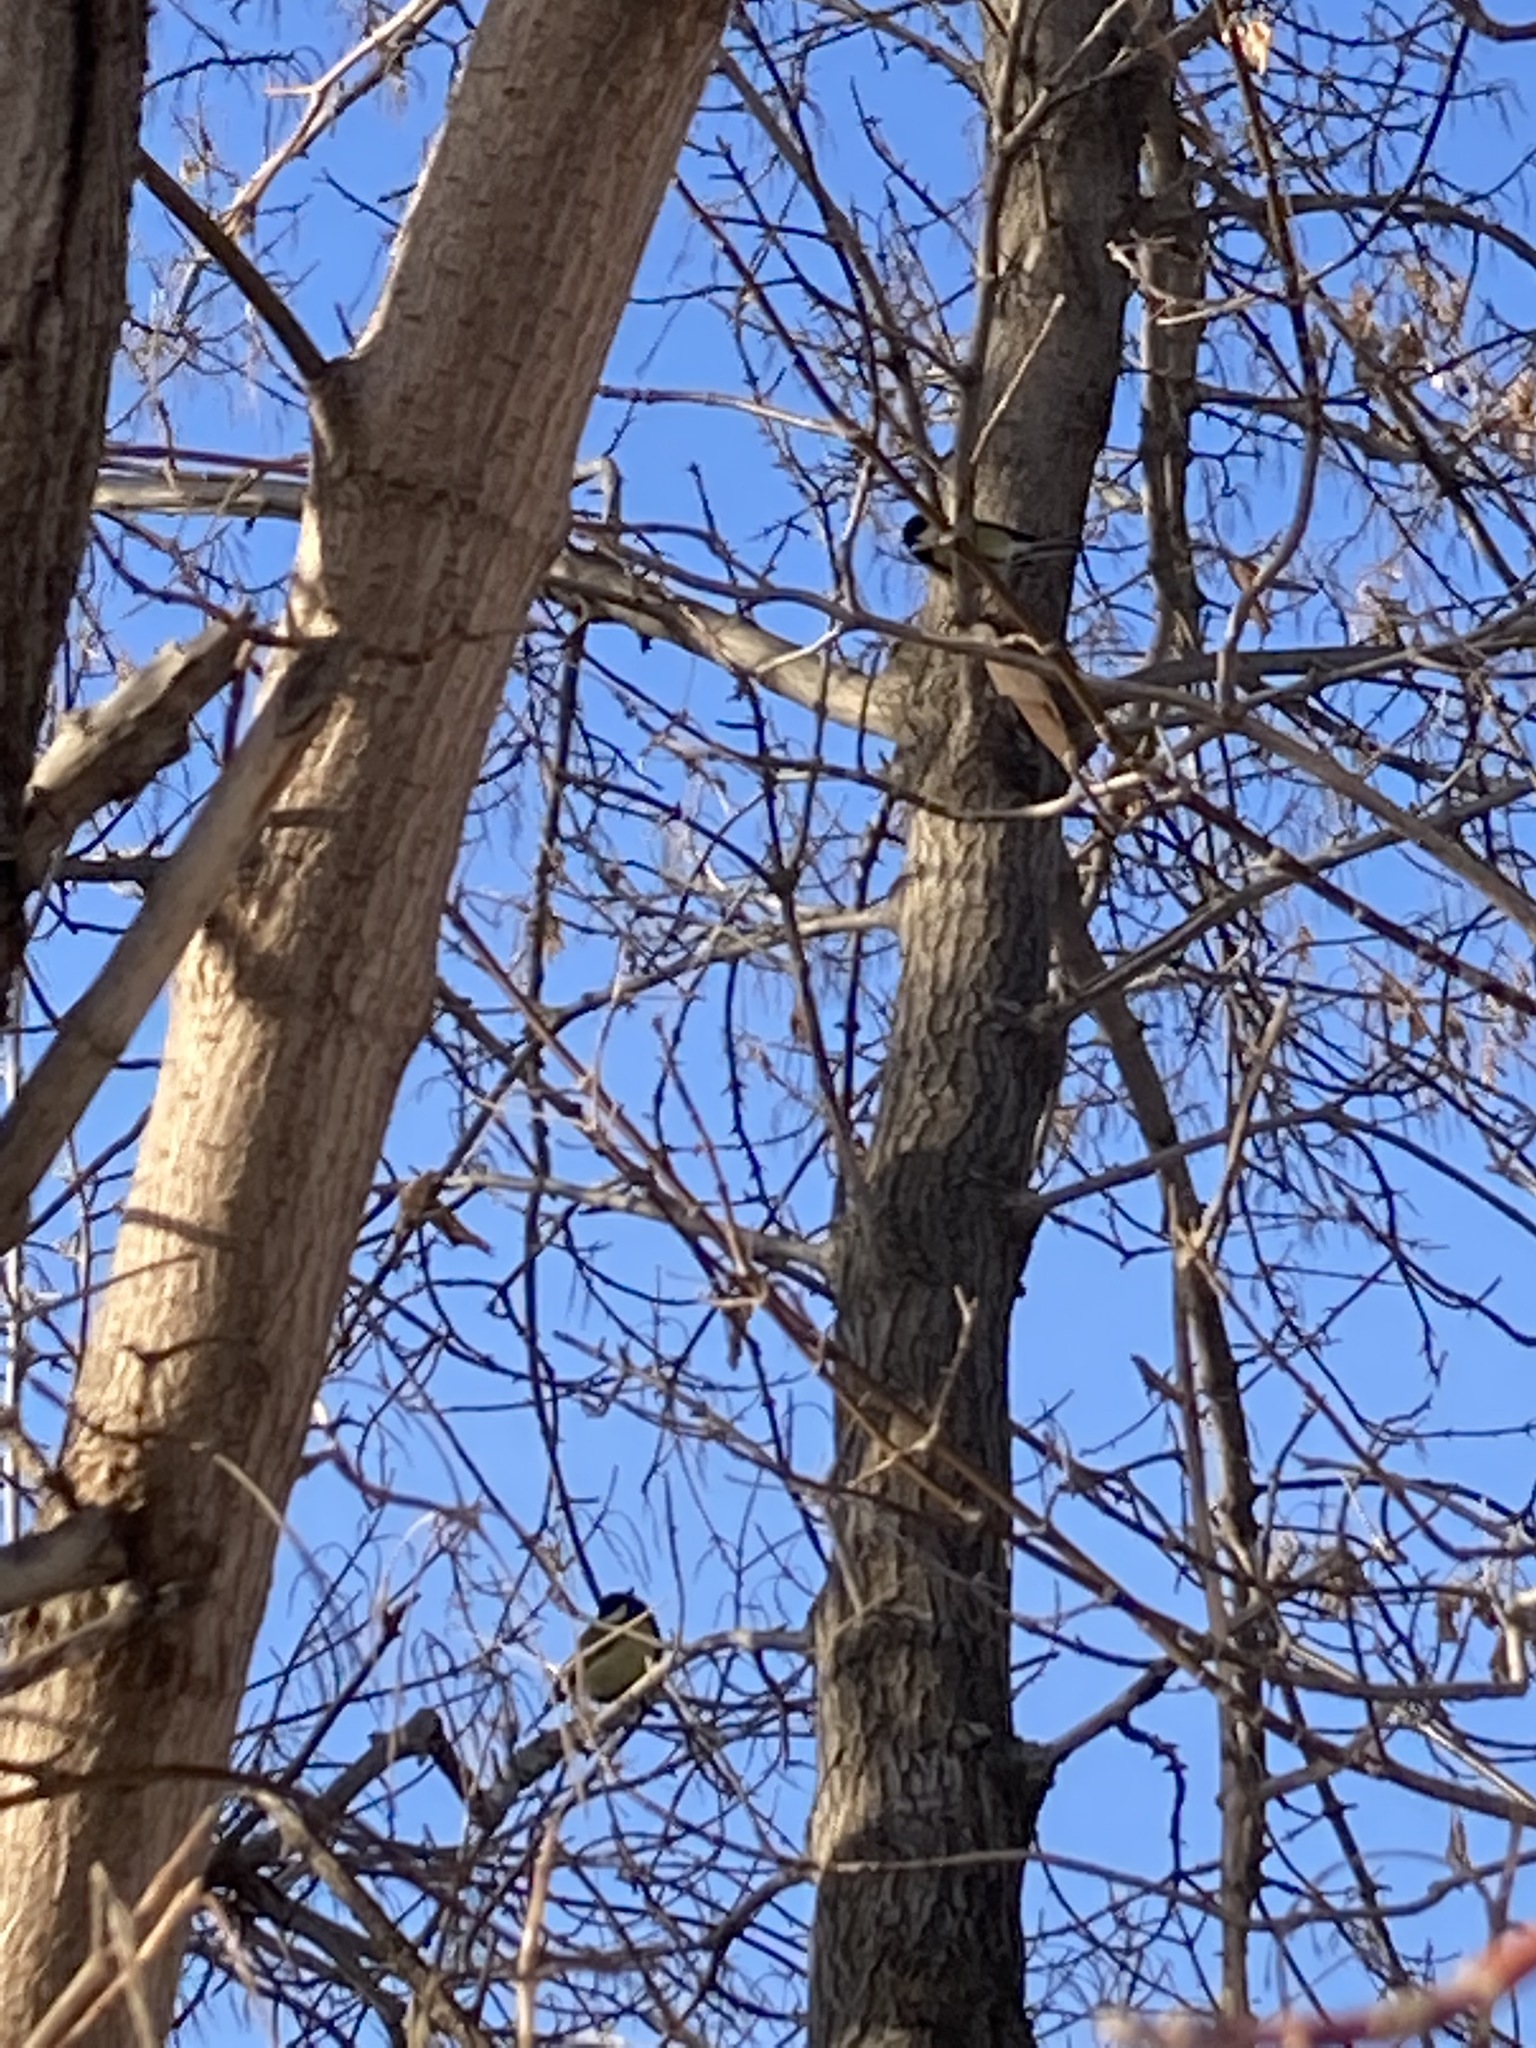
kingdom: Animalia
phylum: Chordata
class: Aves
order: Passeriformes
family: Paridae
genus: Parus
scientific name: Parus major
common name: Great tit
